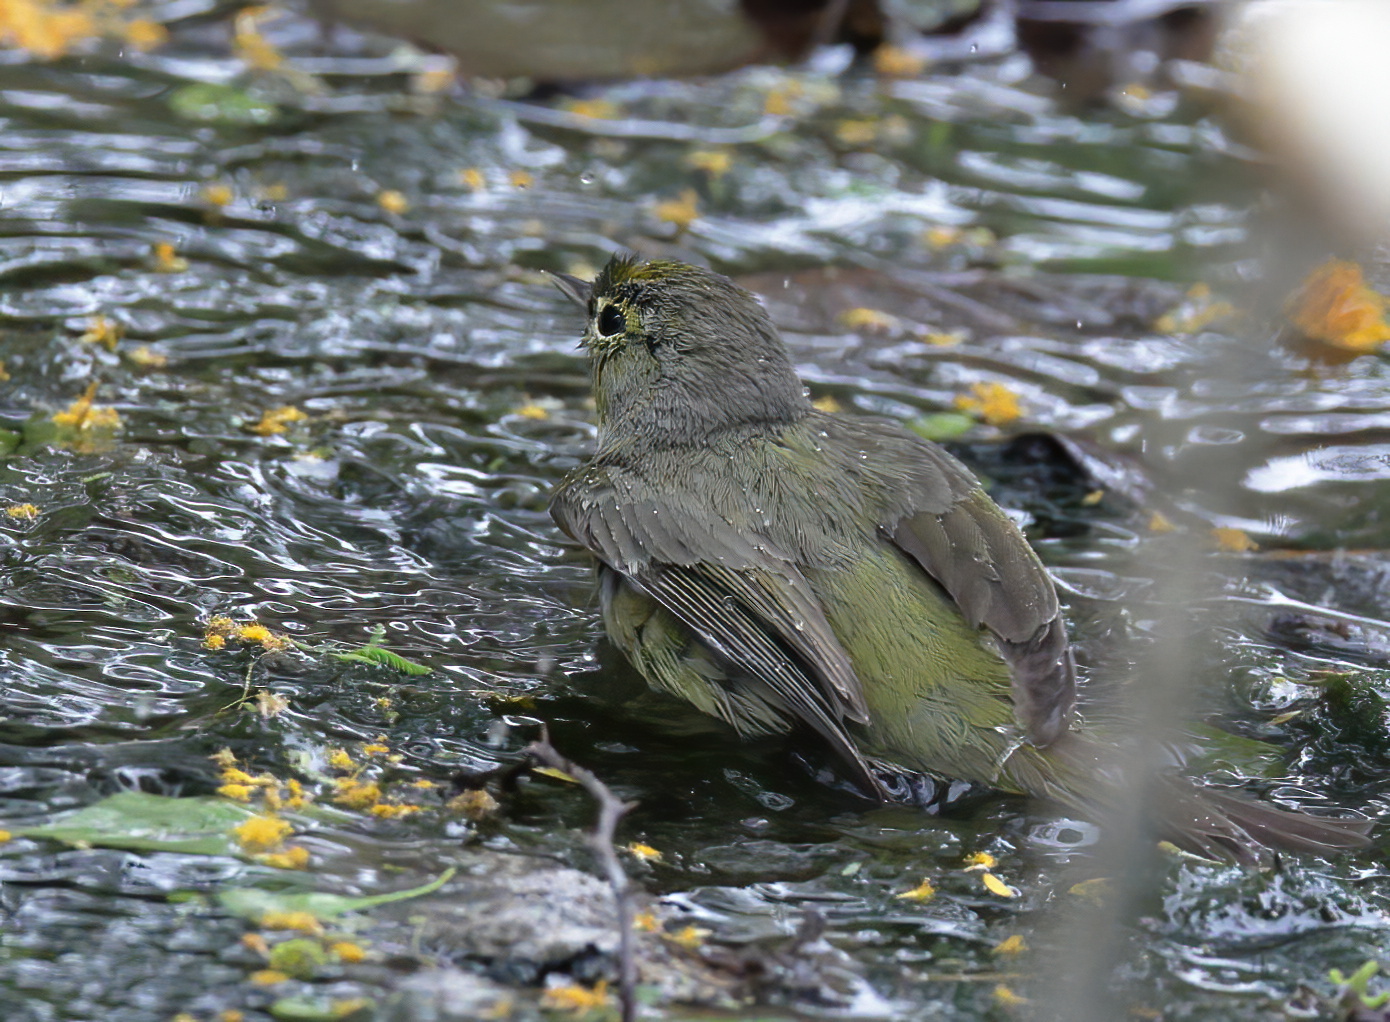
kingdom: Animalia
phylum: Chordata
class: Aves
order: Passeriformes
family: Parulidae
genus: Leiothlypis
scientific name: Leiothlypis celata
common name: Orange-crowned warbler
